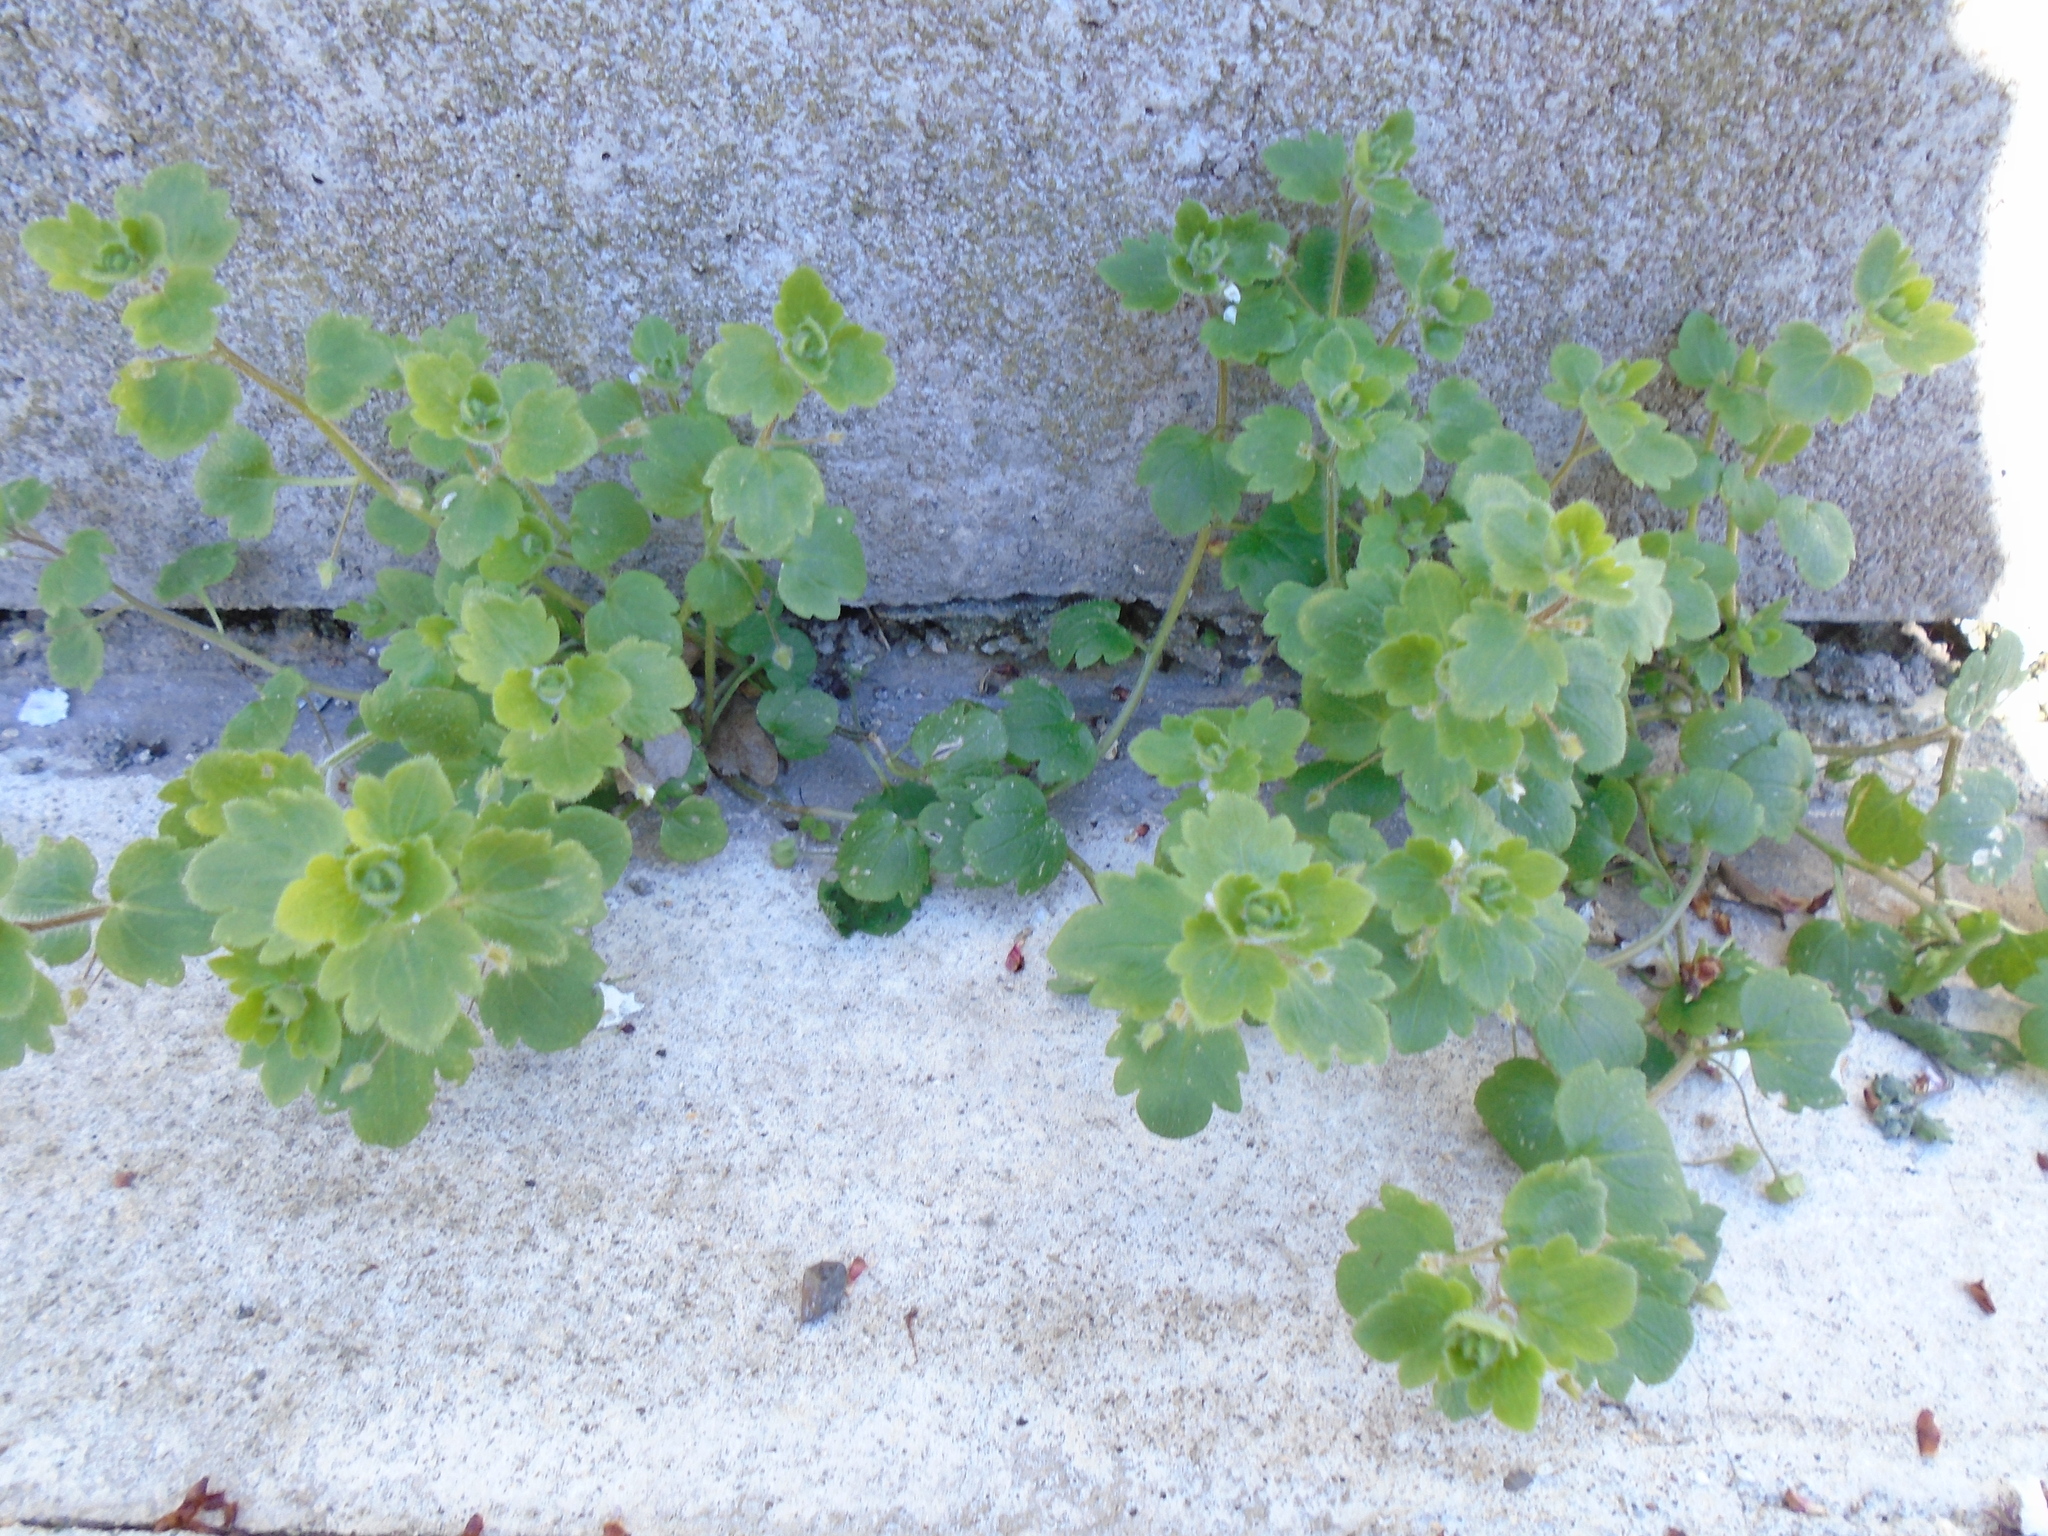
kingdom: Plantae
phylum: Tracheophyta
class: Magnoliopsida
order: Lamiales
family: Plantaginaceae
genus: Veronica
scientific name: Veronica sublobata
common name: False ivy-leaved speedwell
